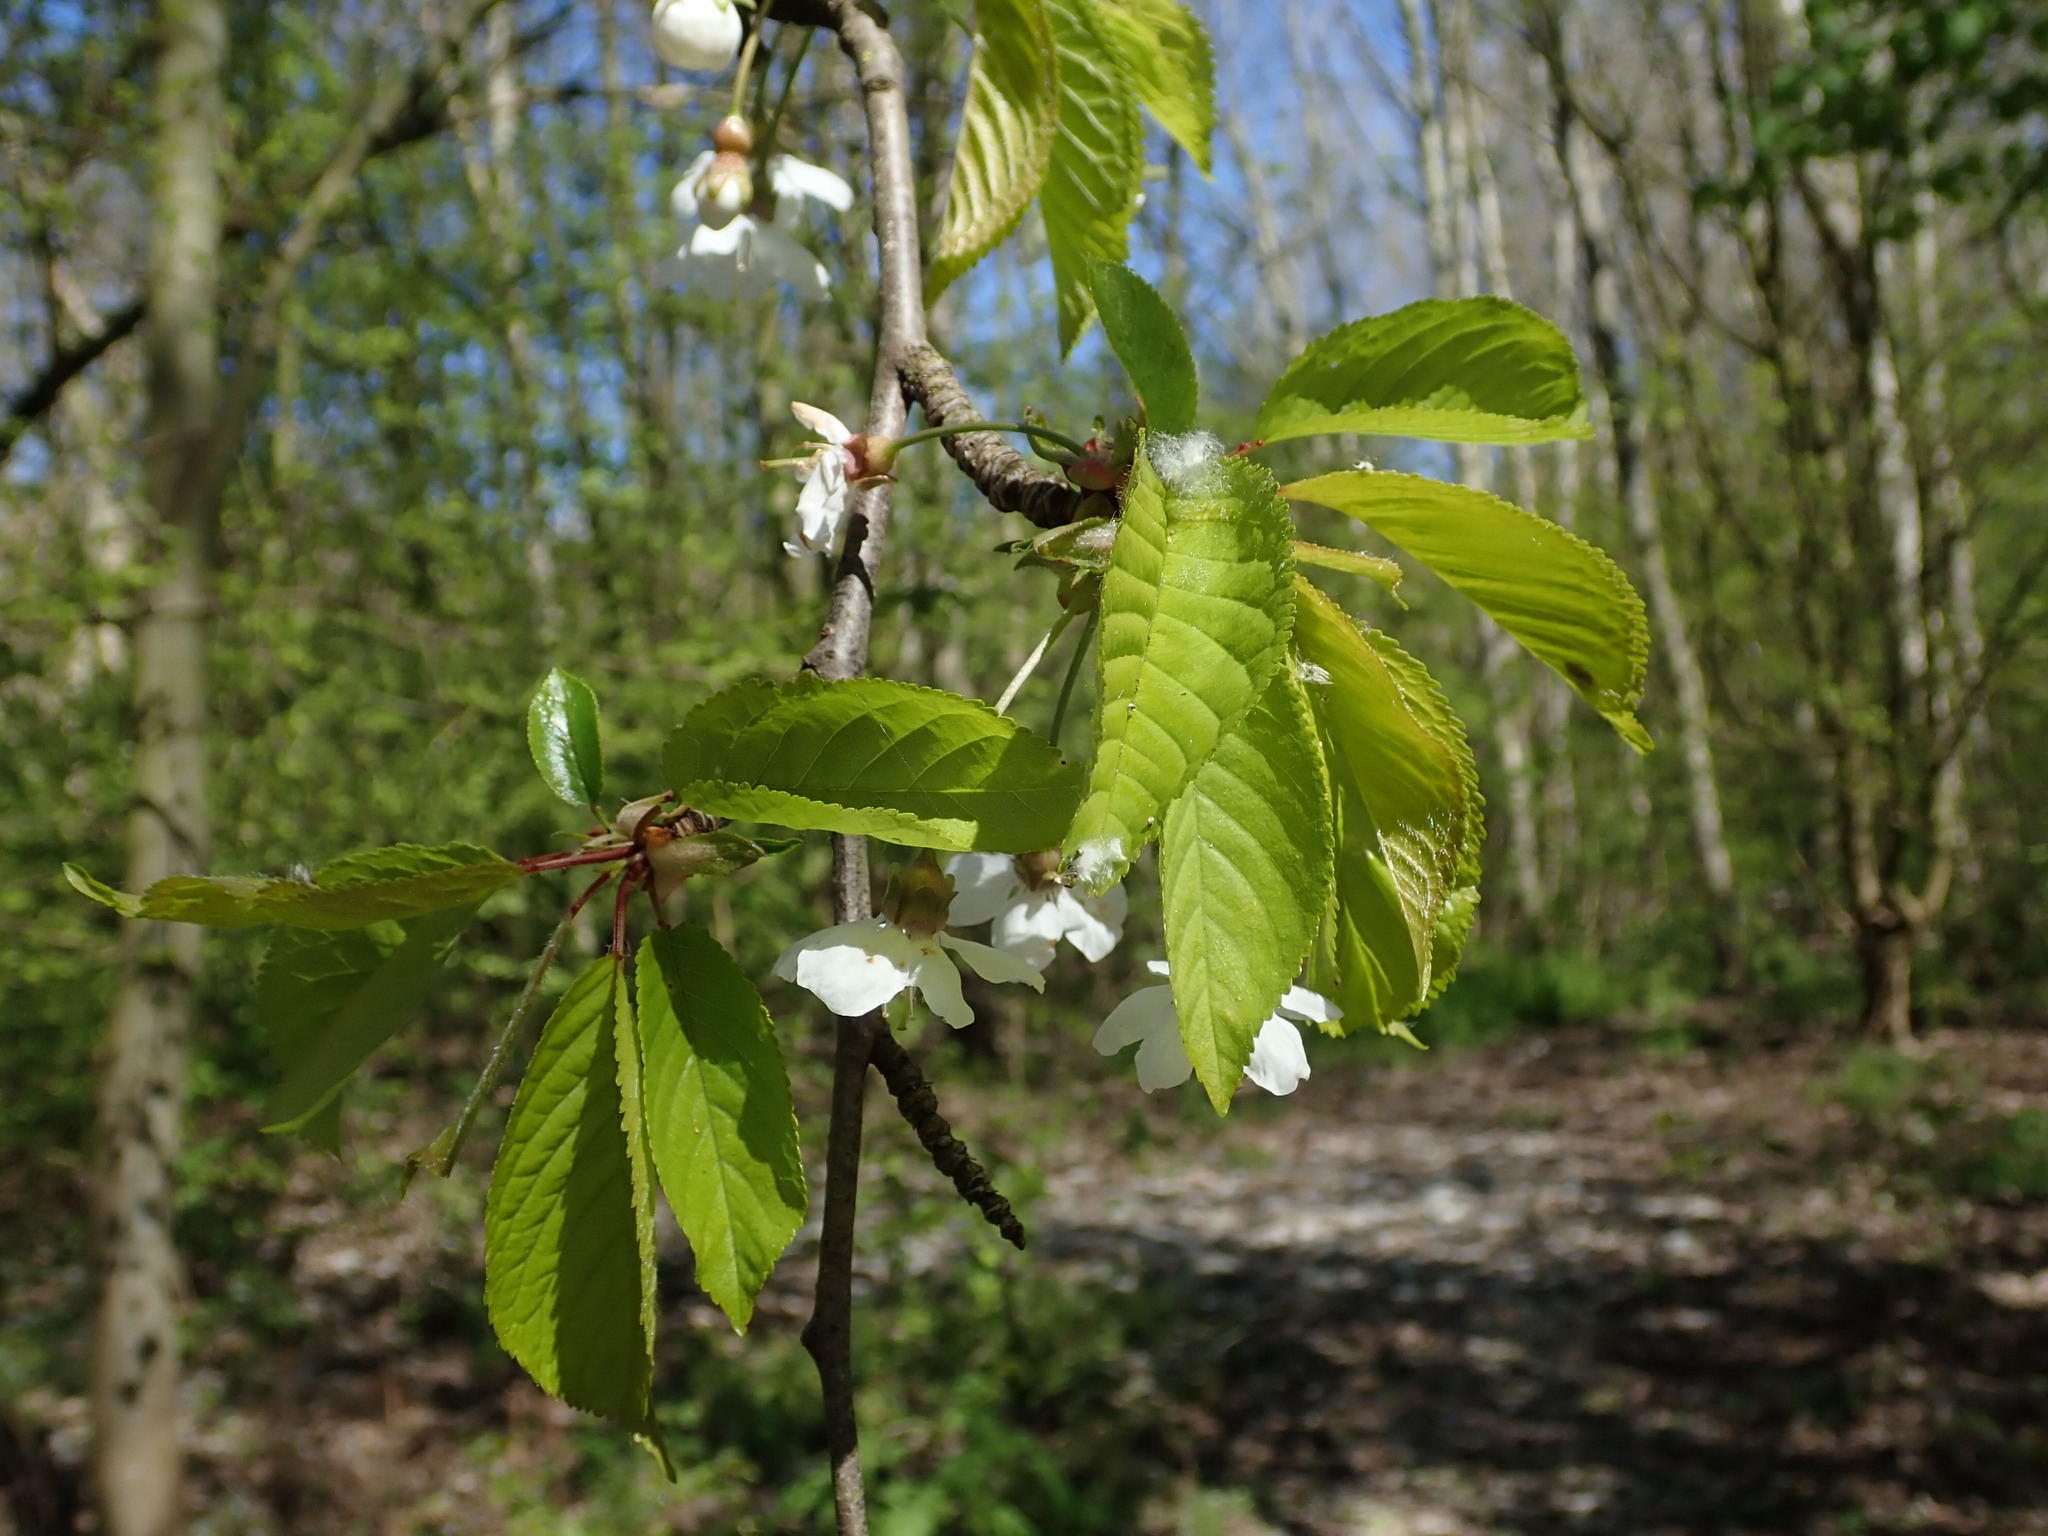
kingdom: Plantae
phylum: Tracheophyta
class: Magnoliopsida
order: Rosales
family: Rosaceae
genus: Prunus
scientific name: Prunus avium
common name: Sweet cherry
